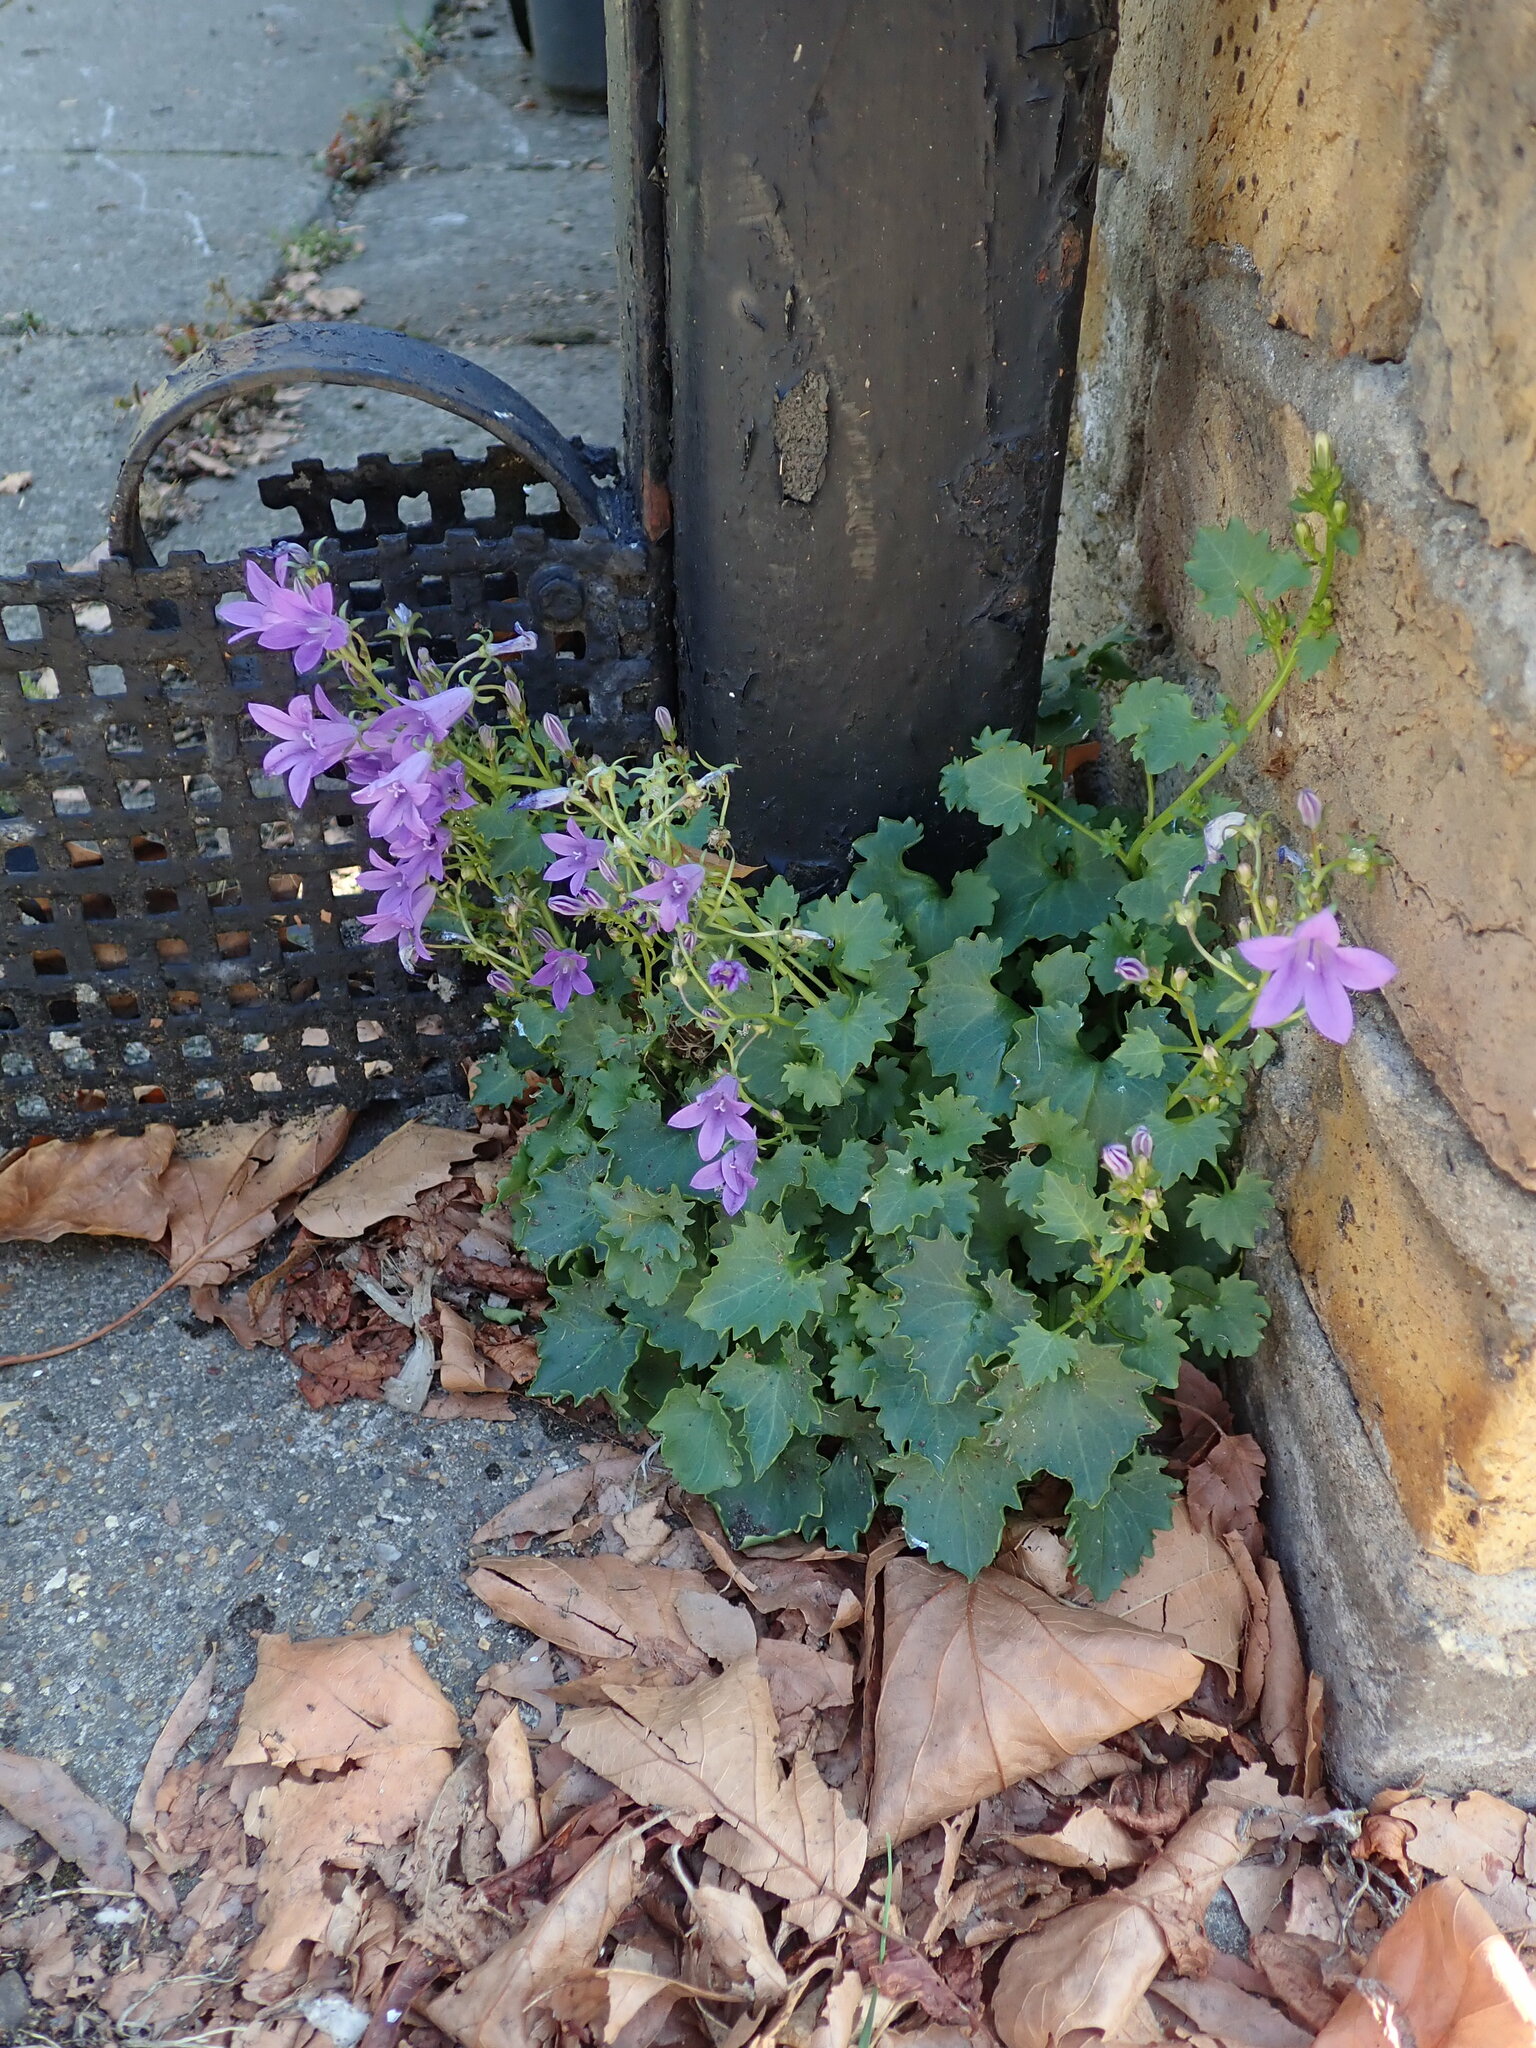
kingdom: Plantae
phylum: Tracheophyta
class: Magnoliopsida
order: Asterales
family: Campanulaceae
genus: Campanula
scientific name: Campanula portenschlagiana
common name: Adria bellflower
